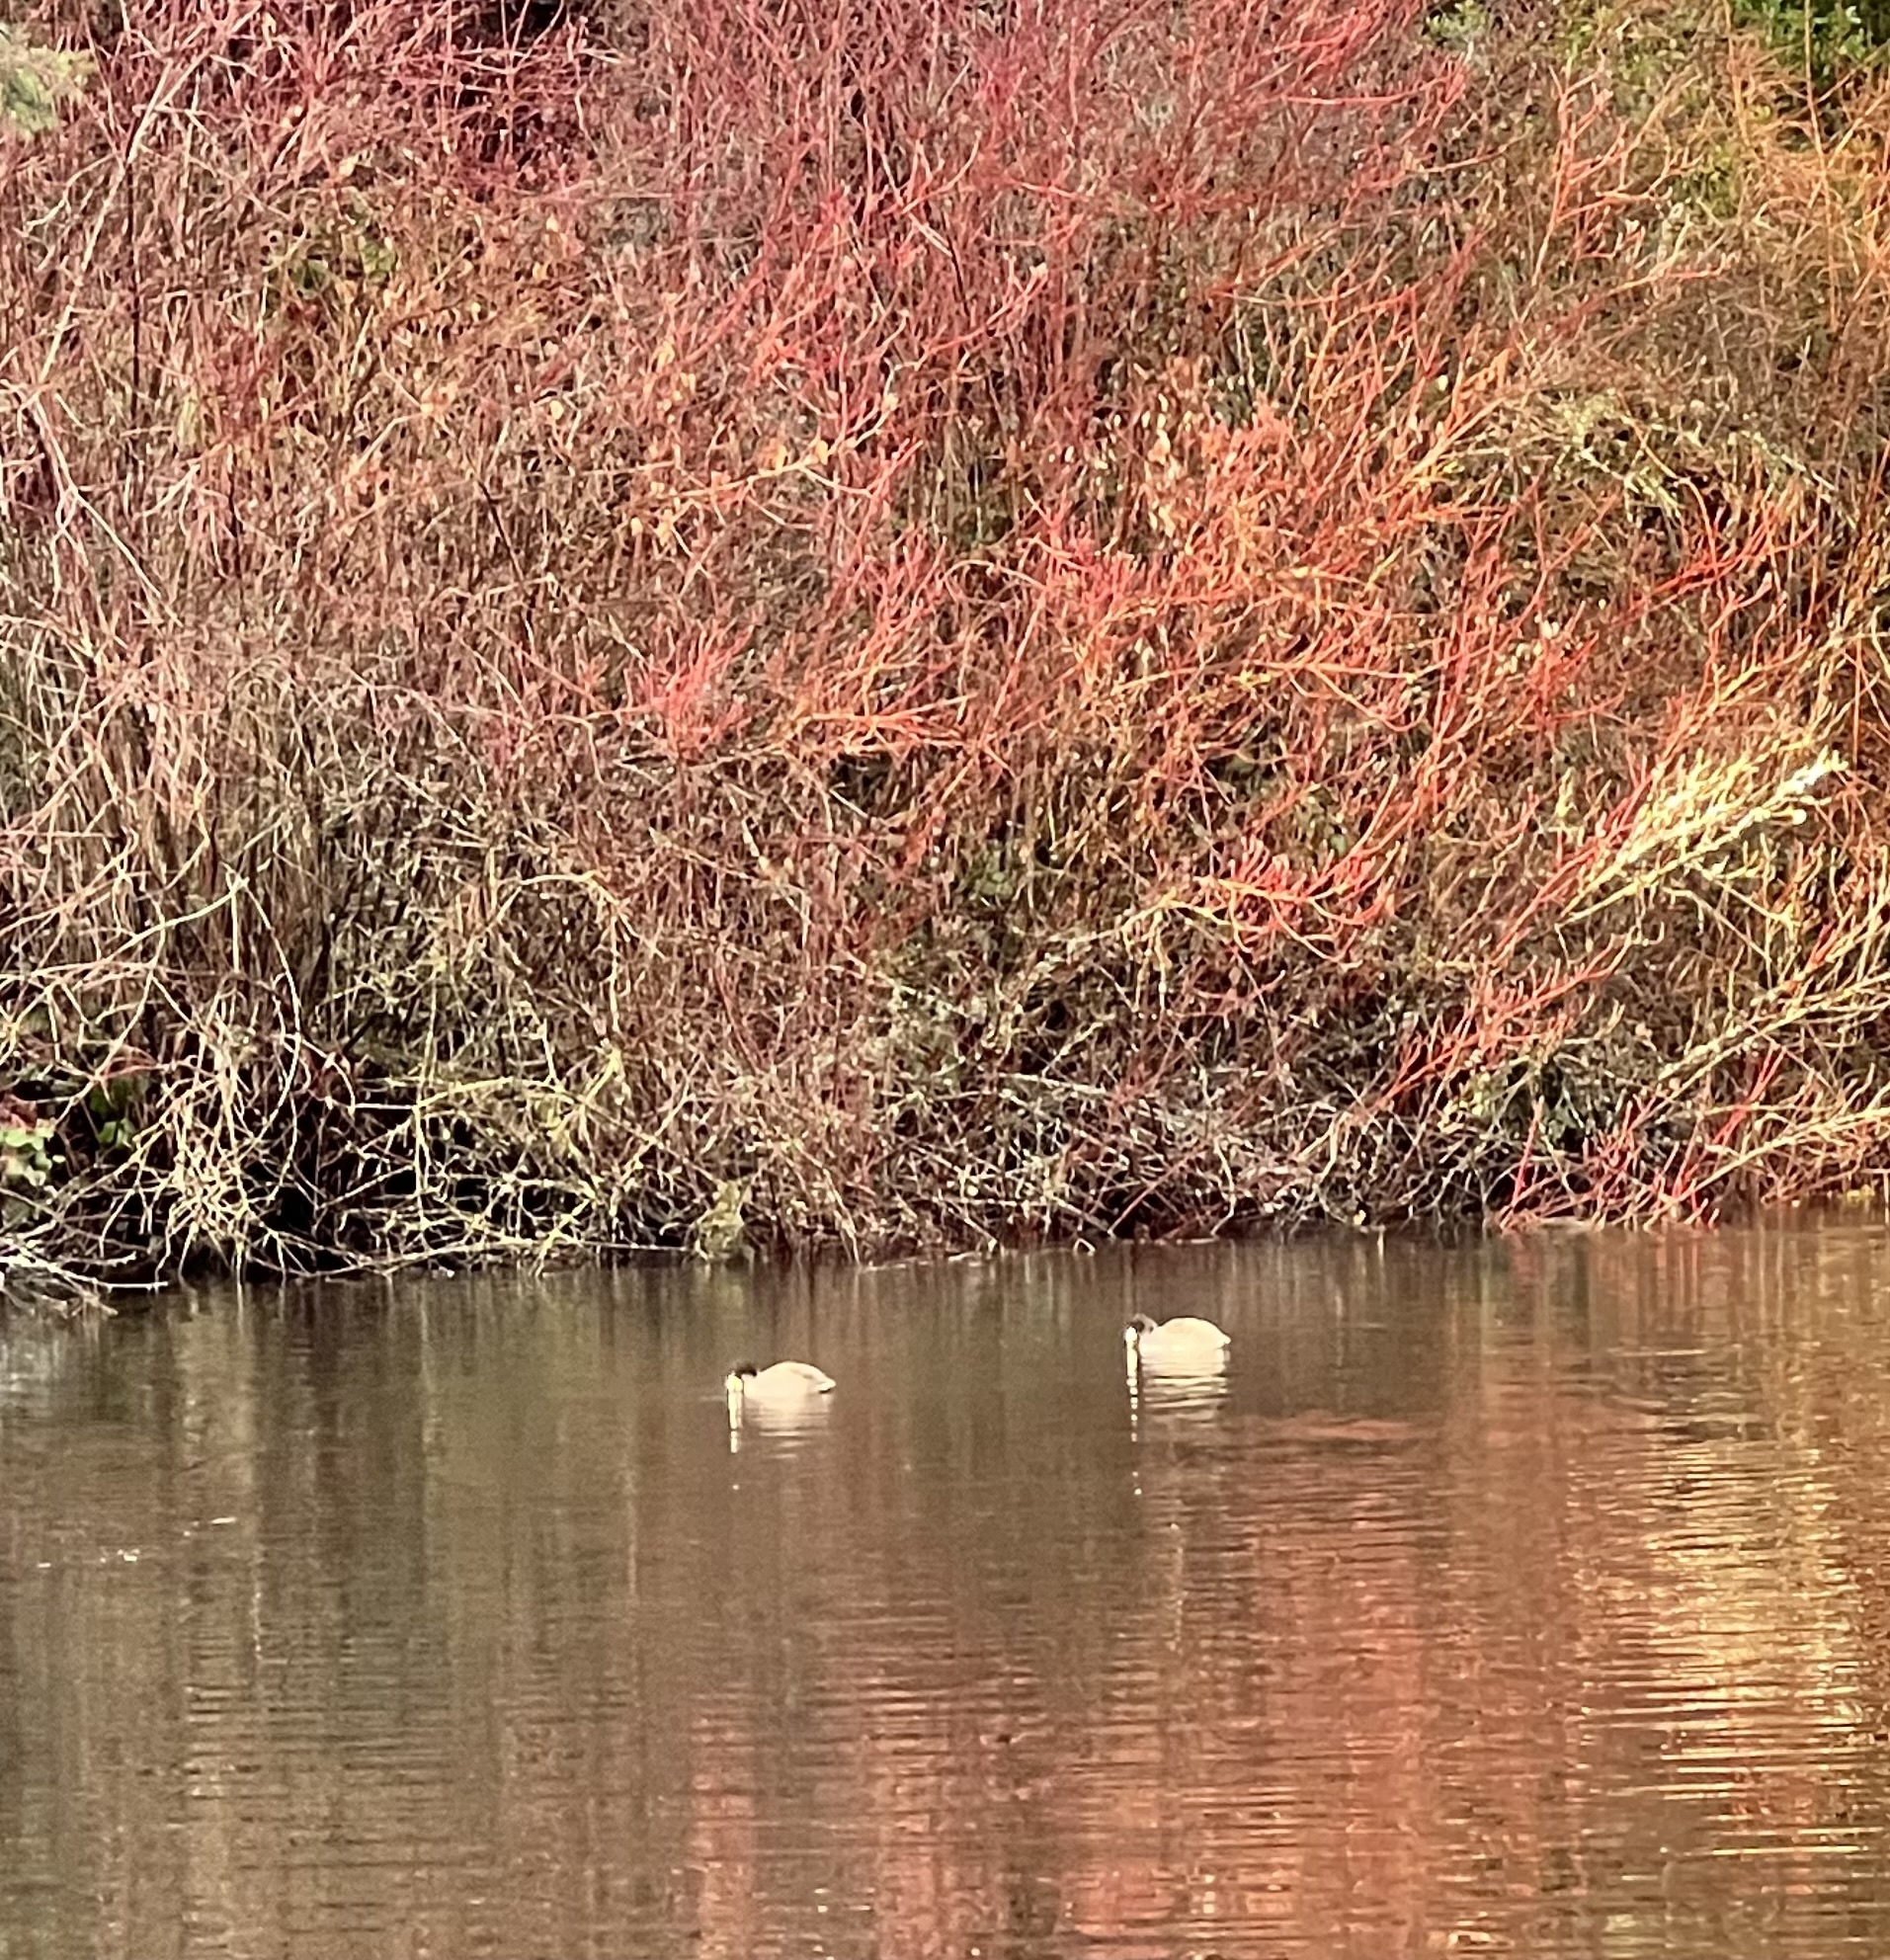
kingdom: Animalia
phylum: Chordata
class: Aves
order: Gruiformes
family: Rallidae
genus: Fulica
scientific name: Fulica americana
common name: American coot
